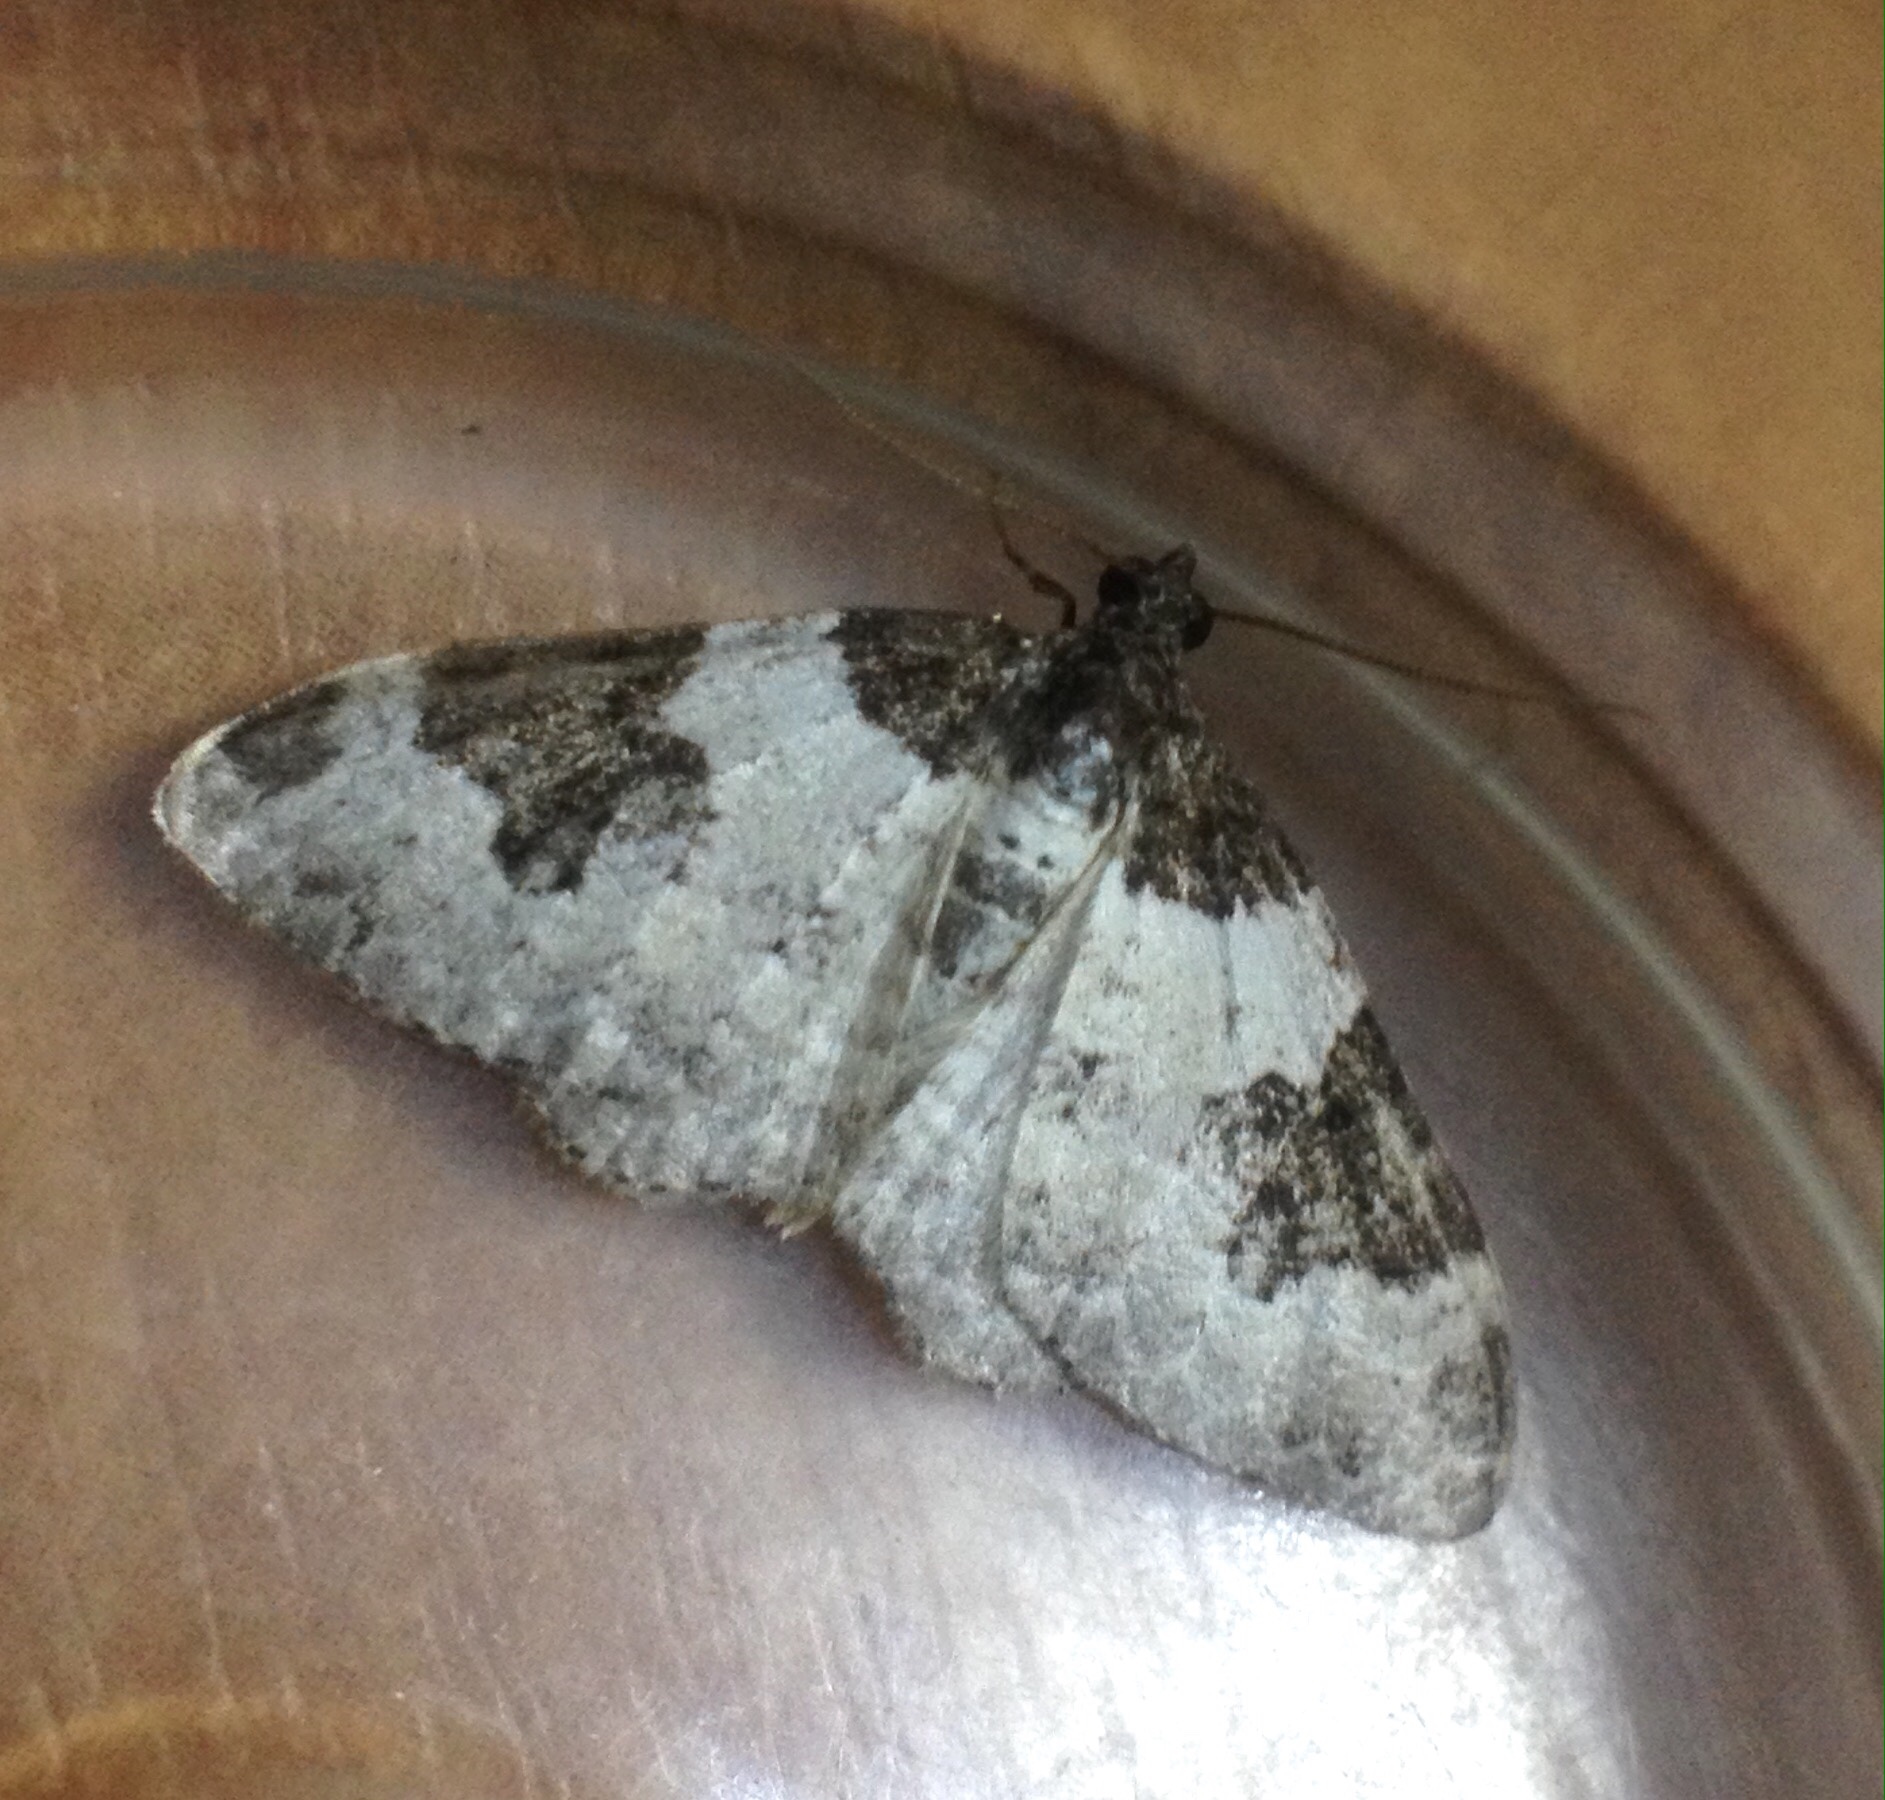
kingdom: Animalia
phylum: Arthropoda
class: Insecta
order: Lepidoptera
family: Geometridae
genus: Xanthorhoe
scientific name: Xanthorhoe fluctuata
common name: Garden carpet
